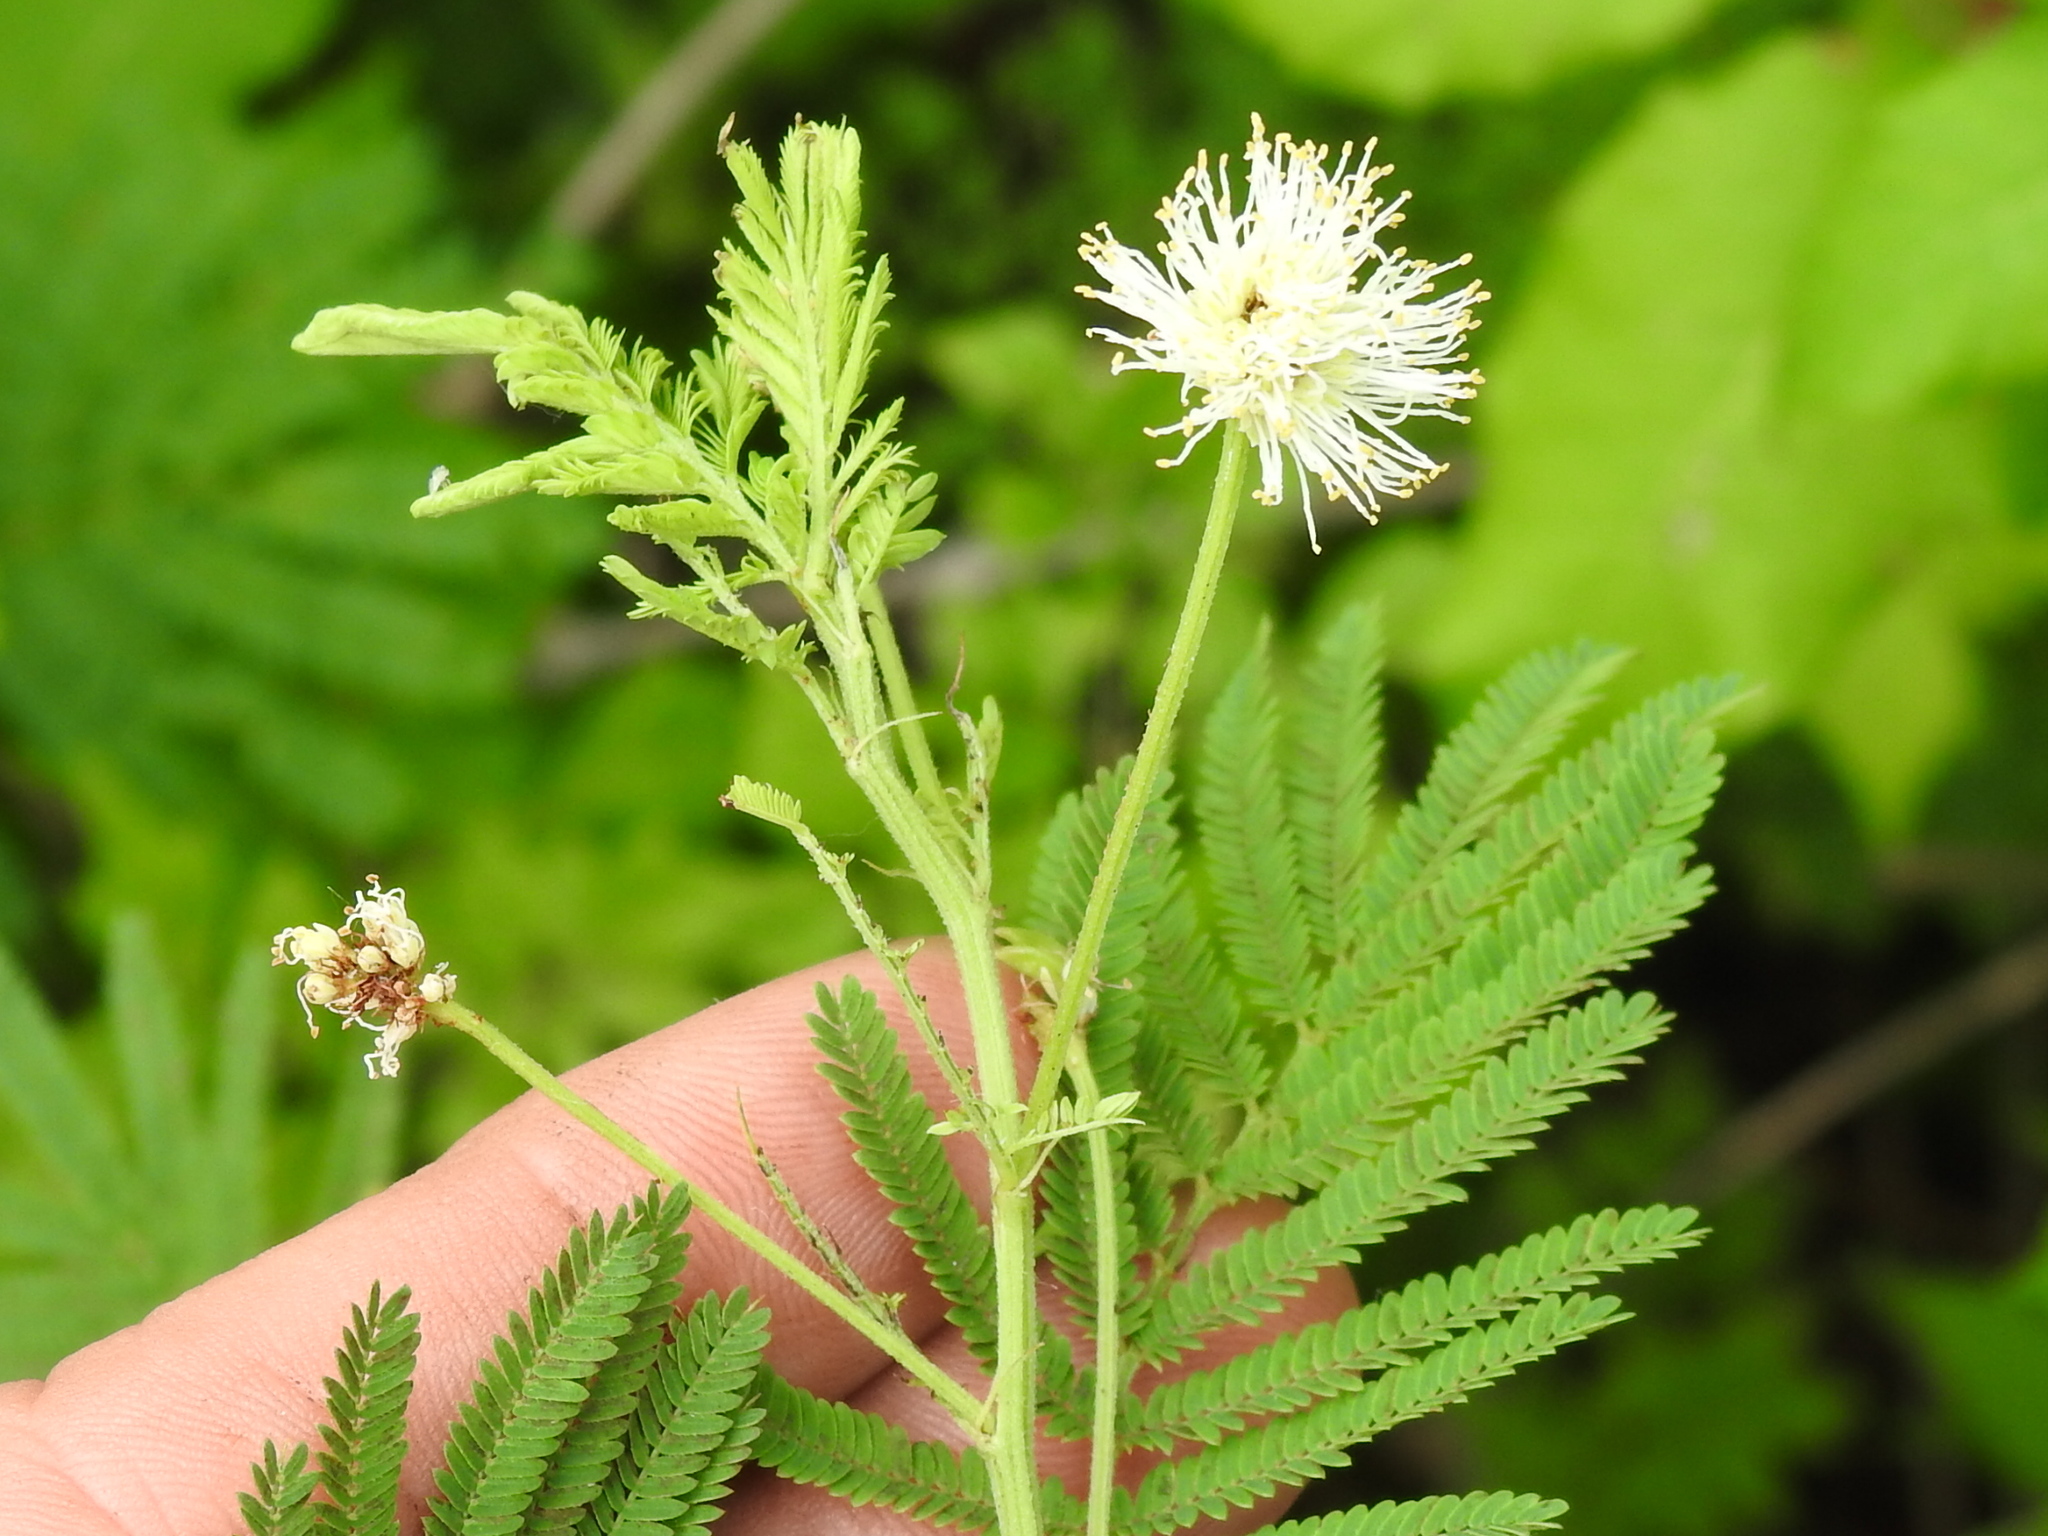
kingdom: Plantae
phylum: Tracheophyta
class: Magnoliopsida
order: Fabales
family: Fabaceae
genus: Desmanthus
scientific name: Desmanthus illinoensis
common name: Illinois bundle-flower
